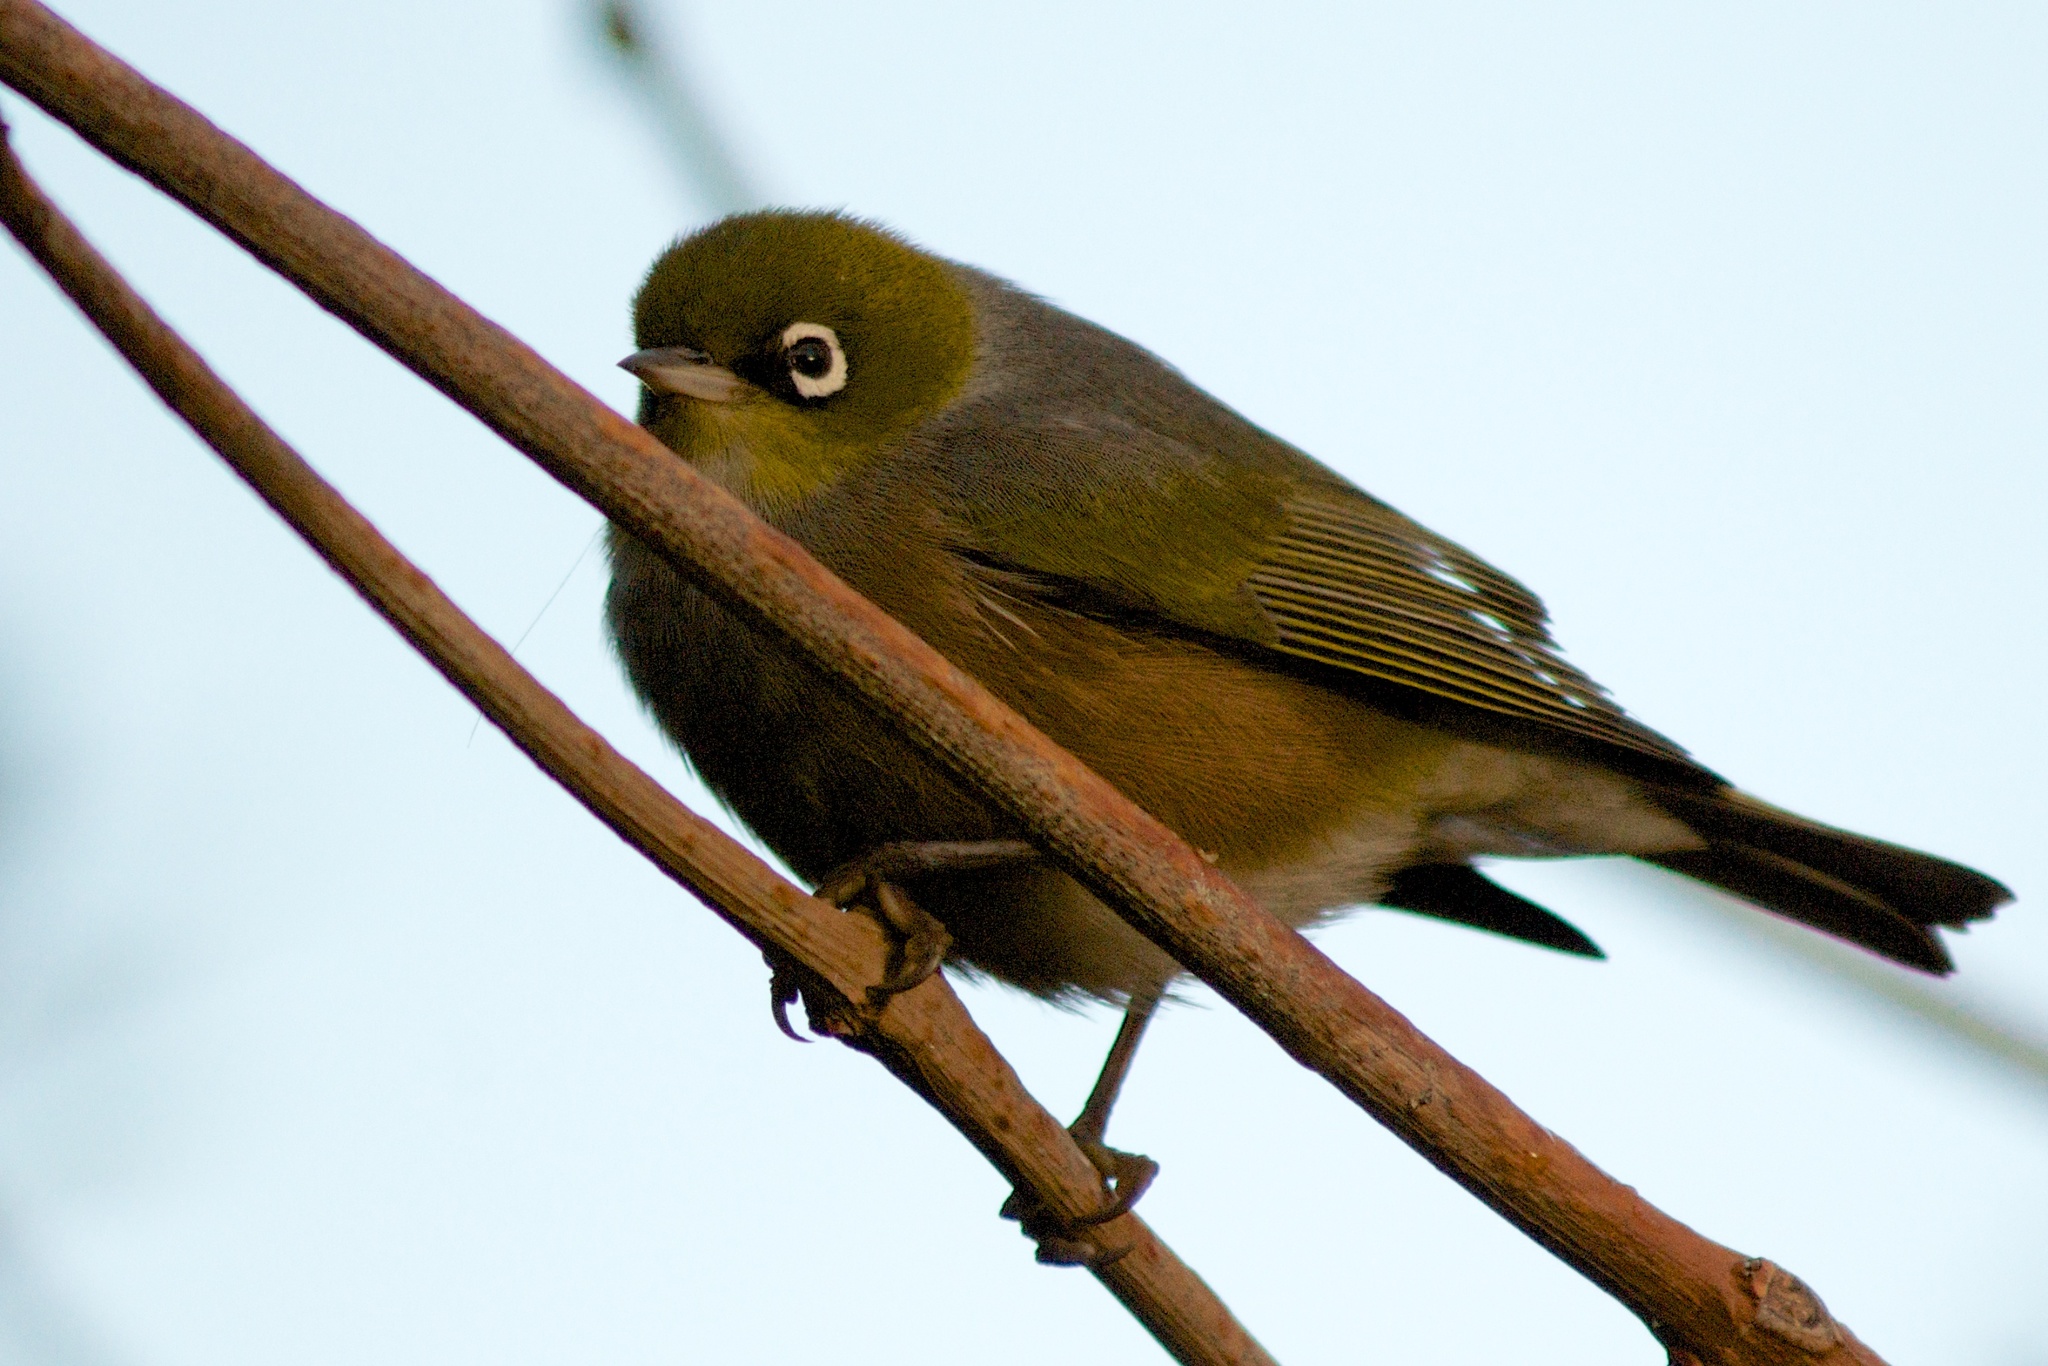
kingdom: Animalia
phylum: Chordata
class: Aves
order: Passeriformes
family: Zosteropidae
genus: Zosterops
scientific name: Zosterops lateralis
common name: Silvereye
